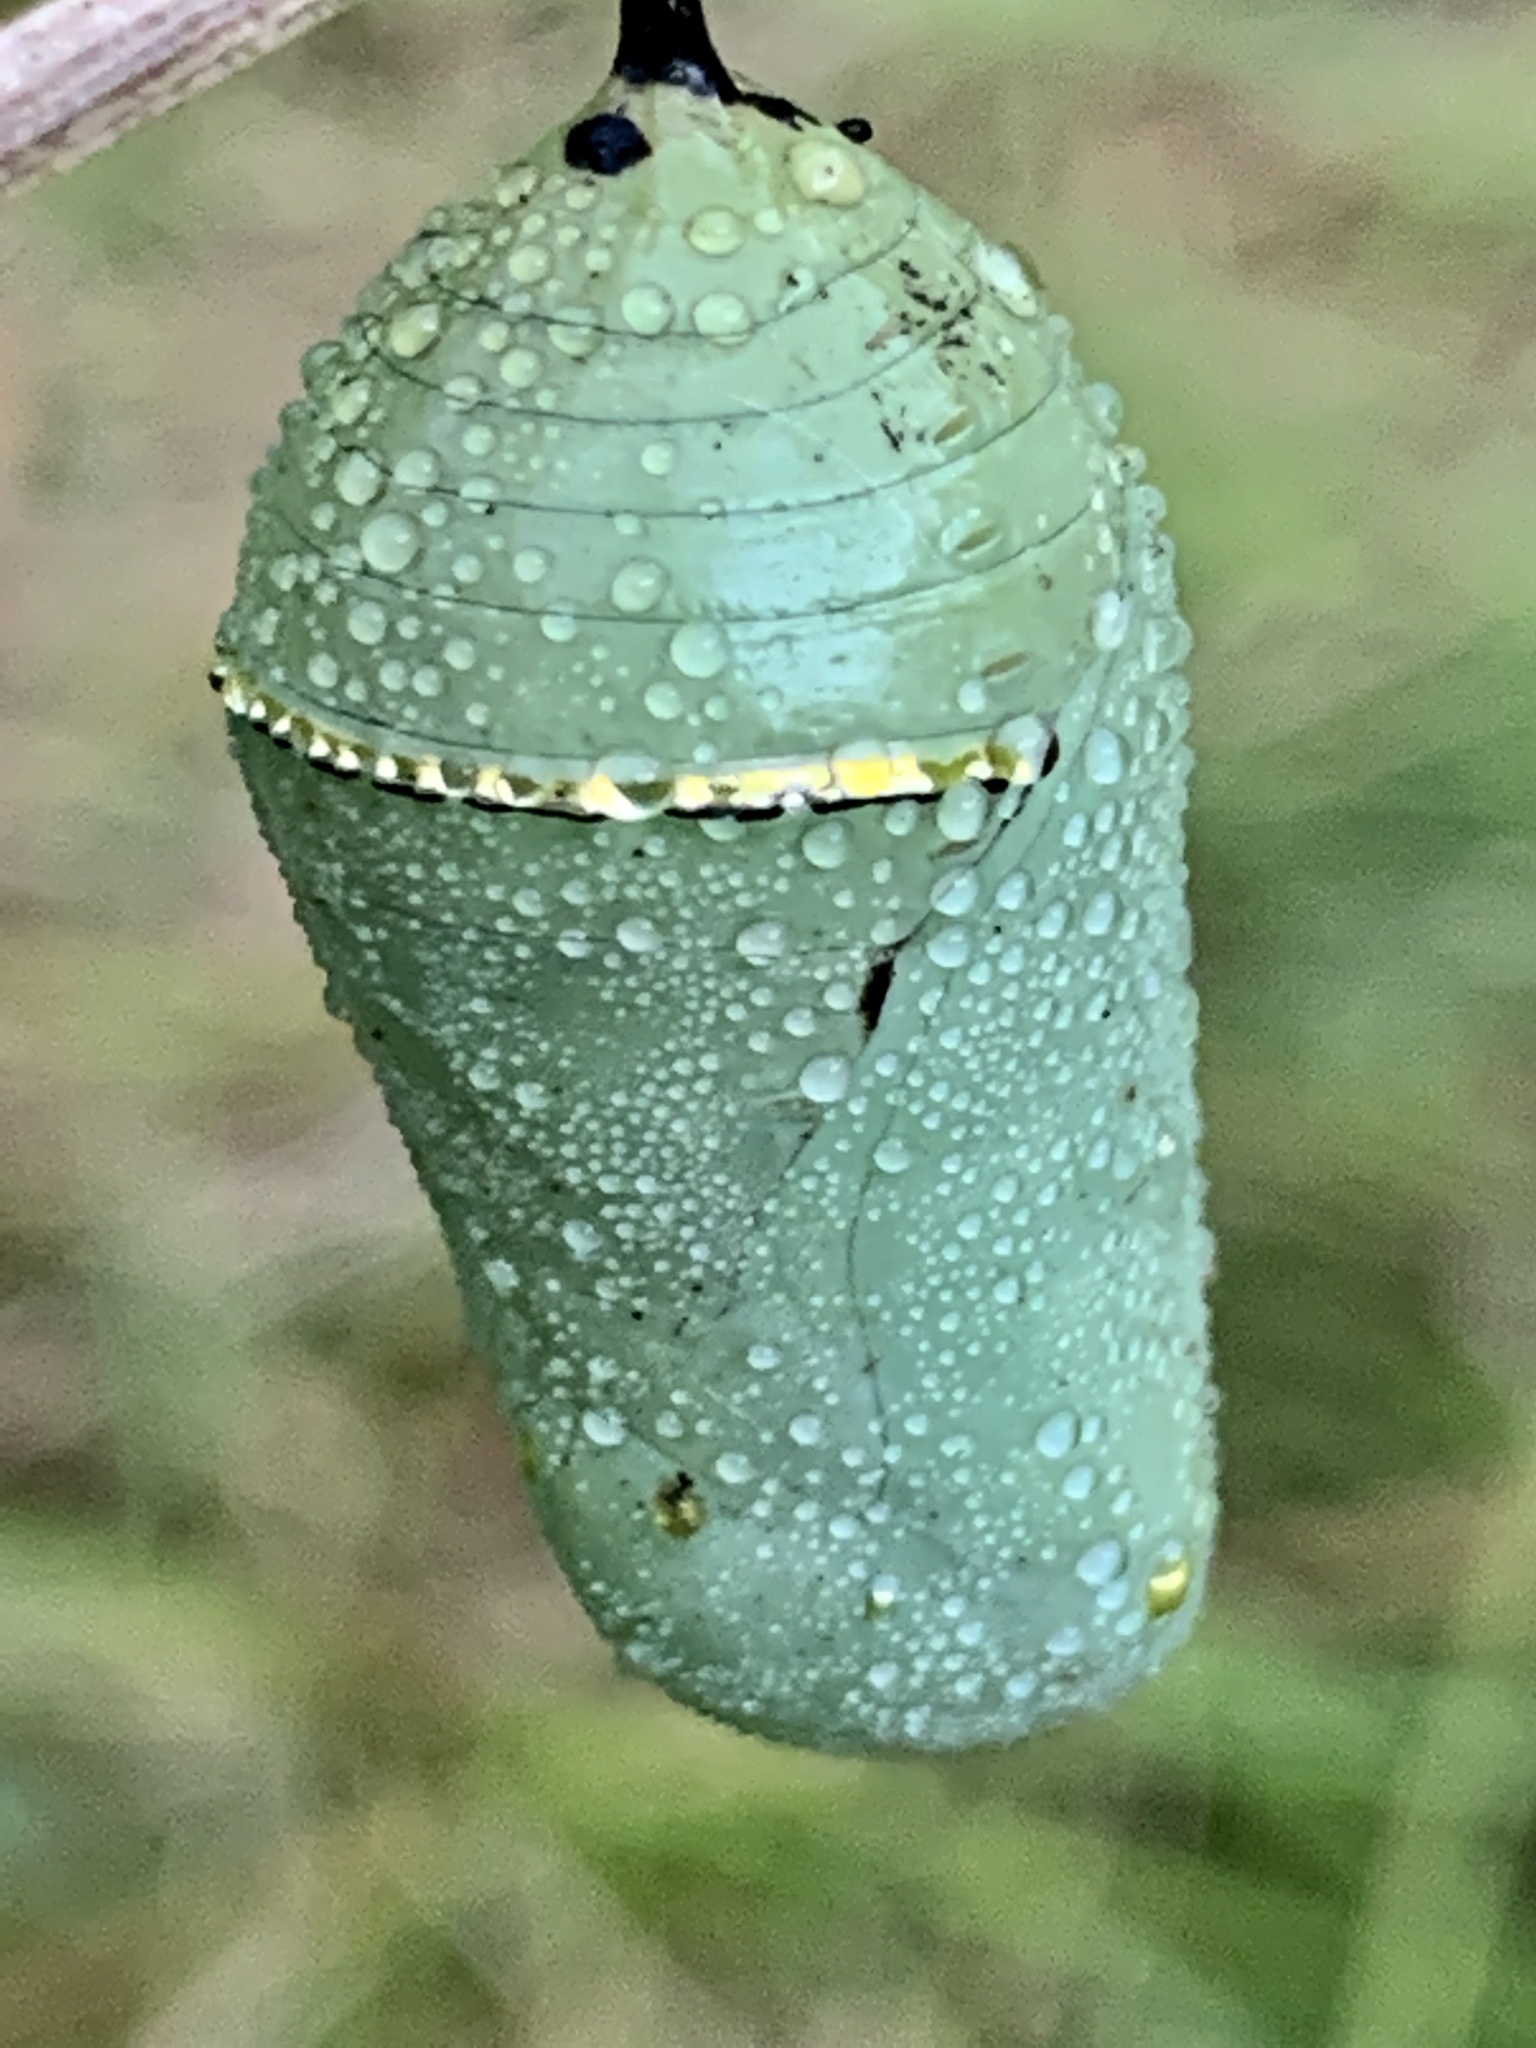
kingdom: Animalia
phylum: Arthropoda
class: Insecta
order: Lepidoptera
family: Nymphalidae
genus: Danaus
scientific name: Danaus plexippus
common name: Monarch
